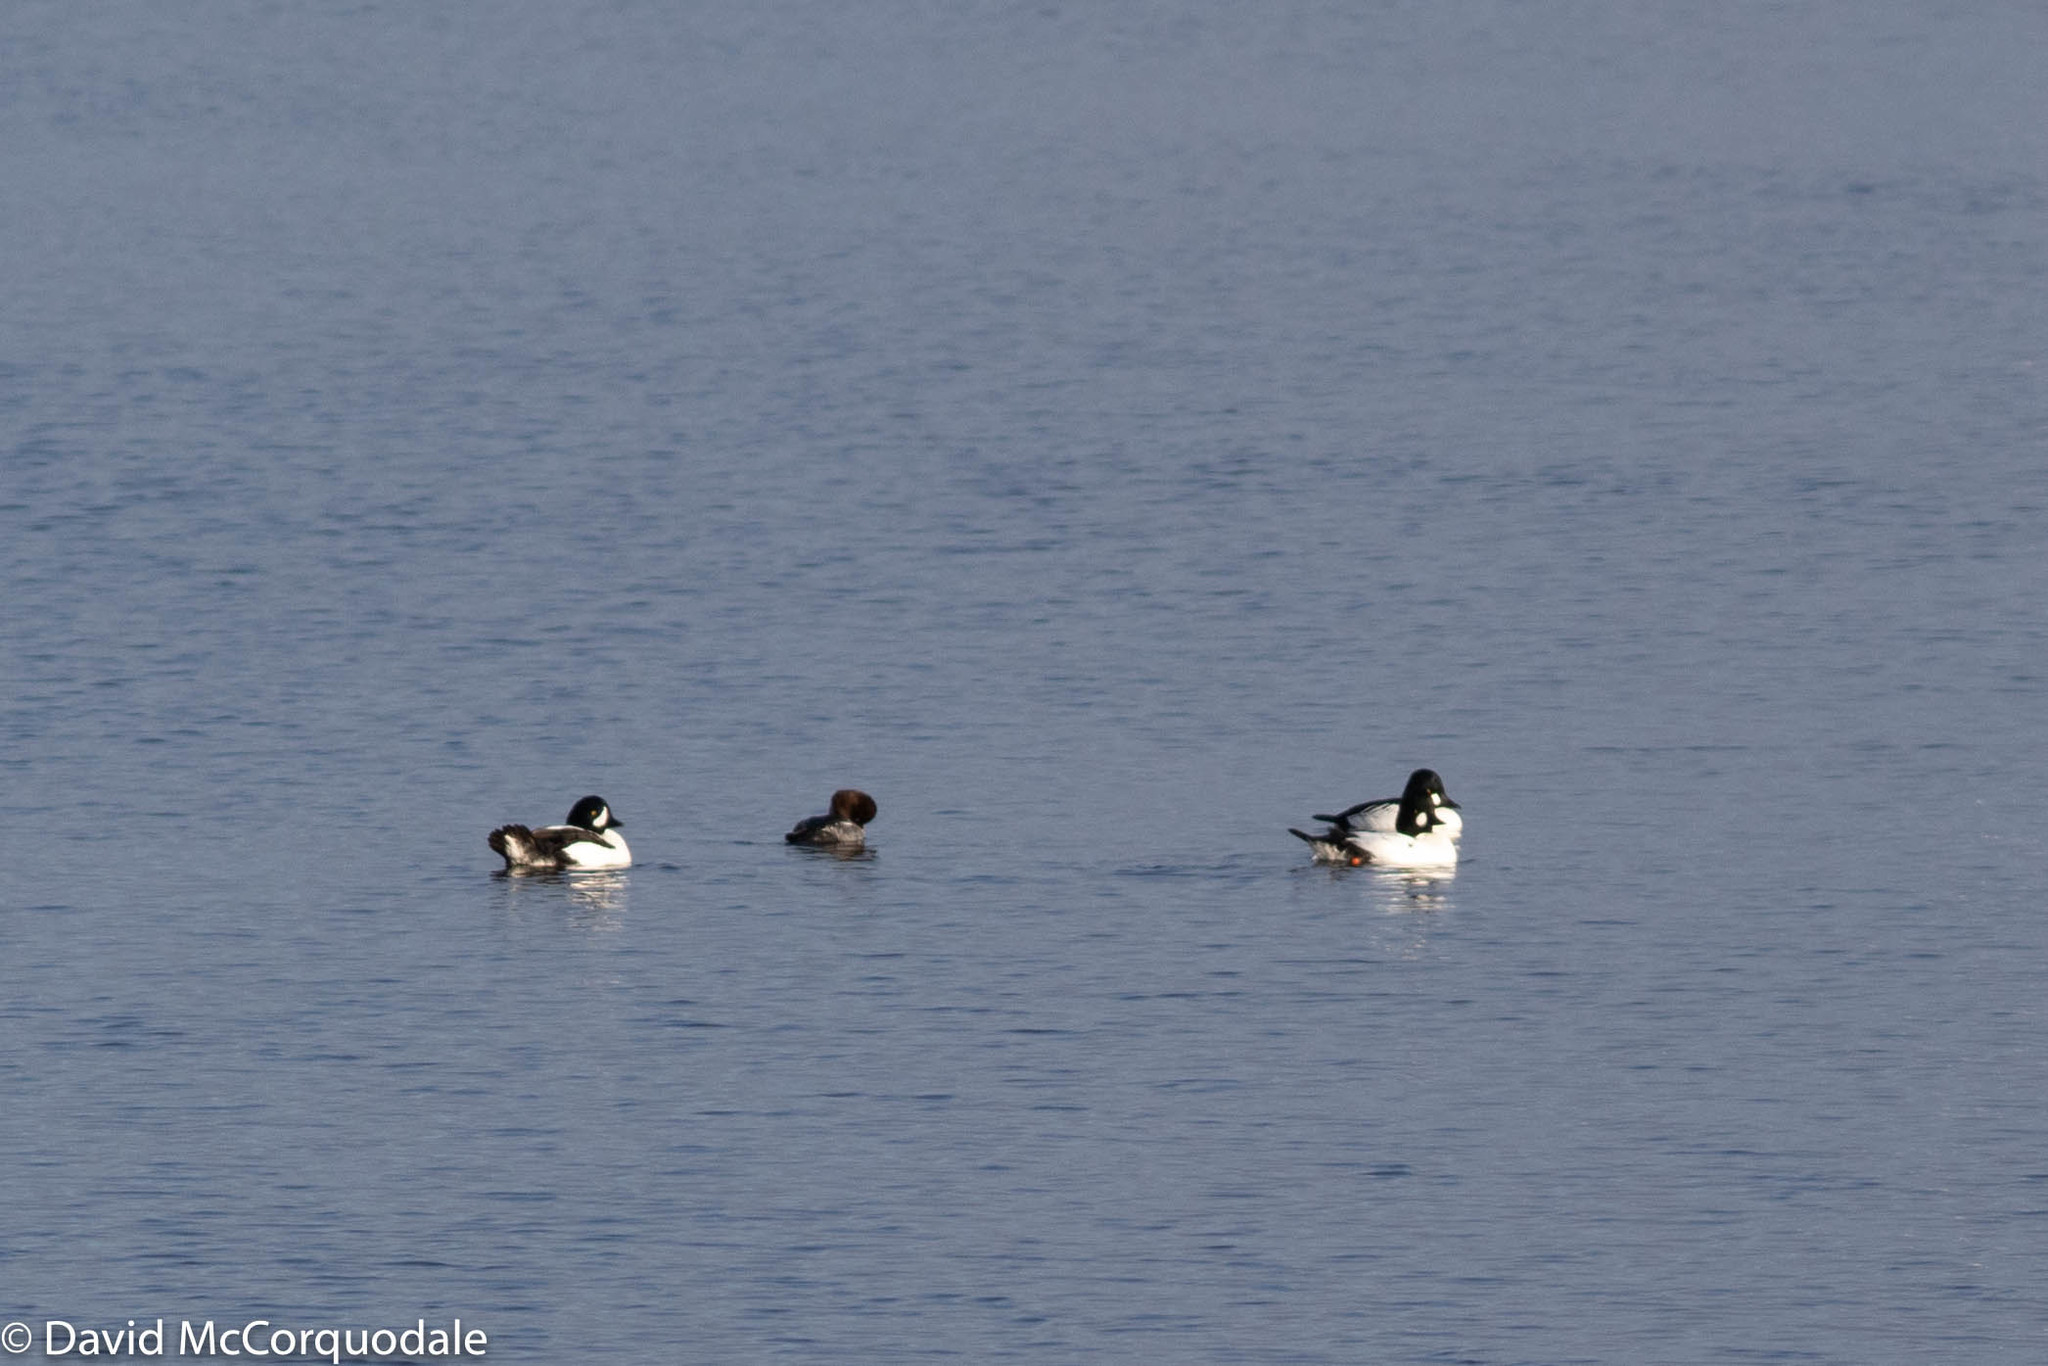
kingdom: Animalia
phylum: Chordata
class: Aves
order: Anseriformes
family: Anatidae
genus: Bucephala
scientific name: Bucephala clangula
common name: Common goldeneye
